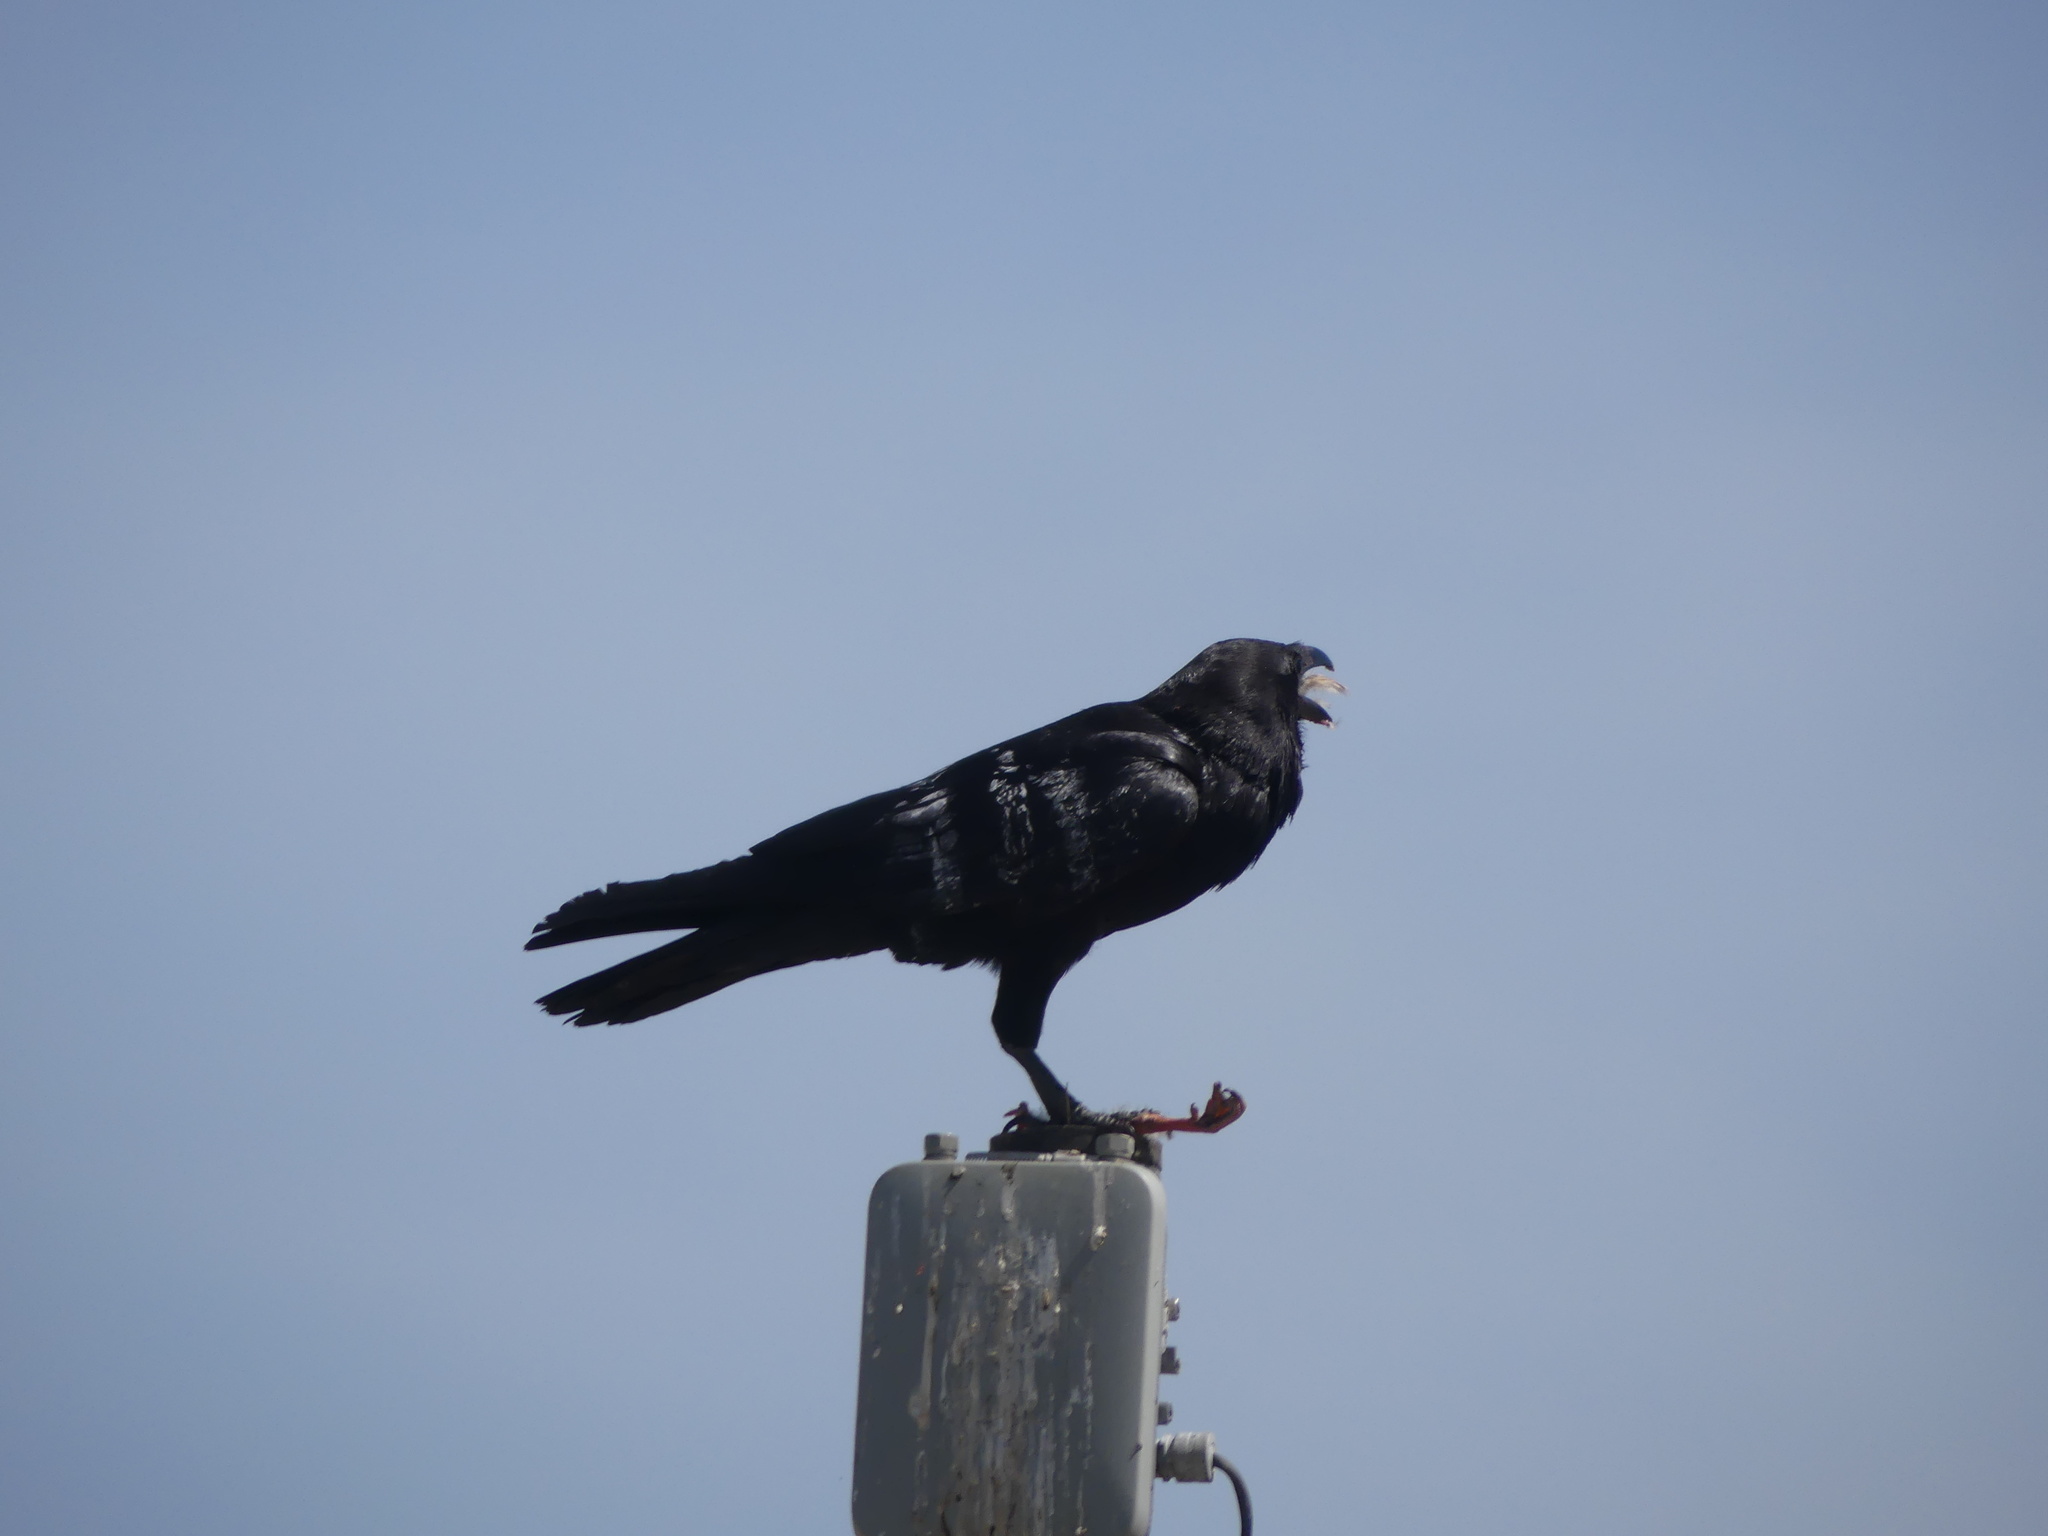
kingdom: Animalia
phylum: Chordata
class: Aves
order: Passeriformes
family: Corvidae
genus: Corvus
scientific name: Corvus brachyrhynchos
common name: American crow
